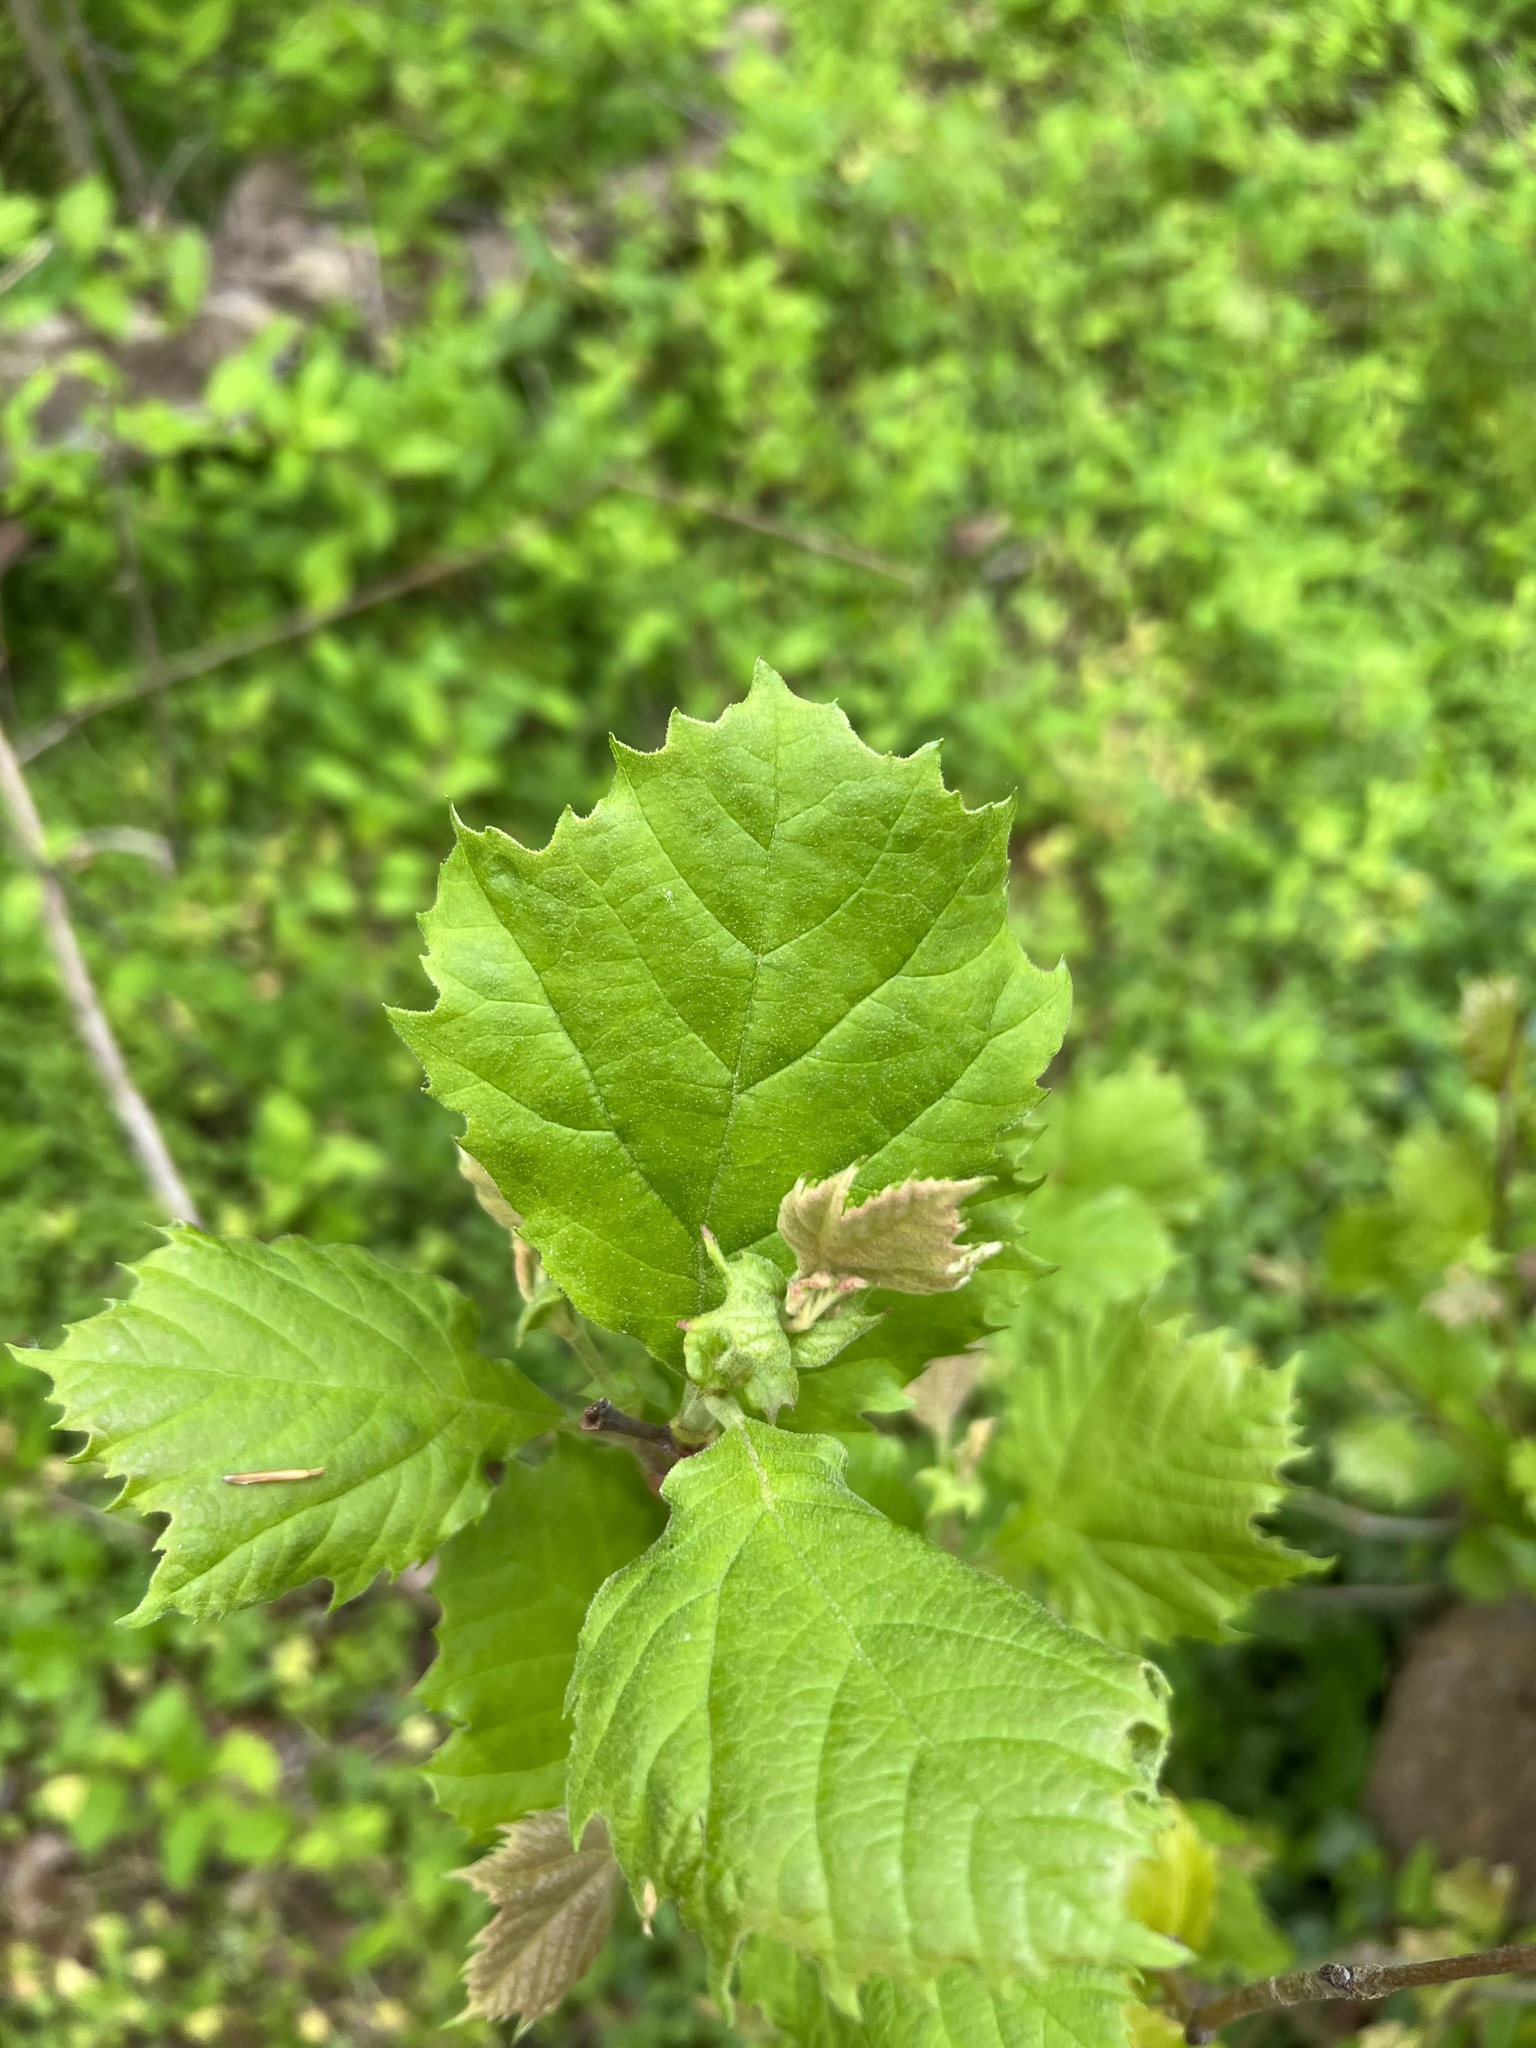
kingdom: Plantae
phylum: Tracheophyta
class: Magnoliopsida
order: Proteales
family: Platanaceae
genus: Platanus
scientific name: Platanus occidentalis
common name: American sycamore
